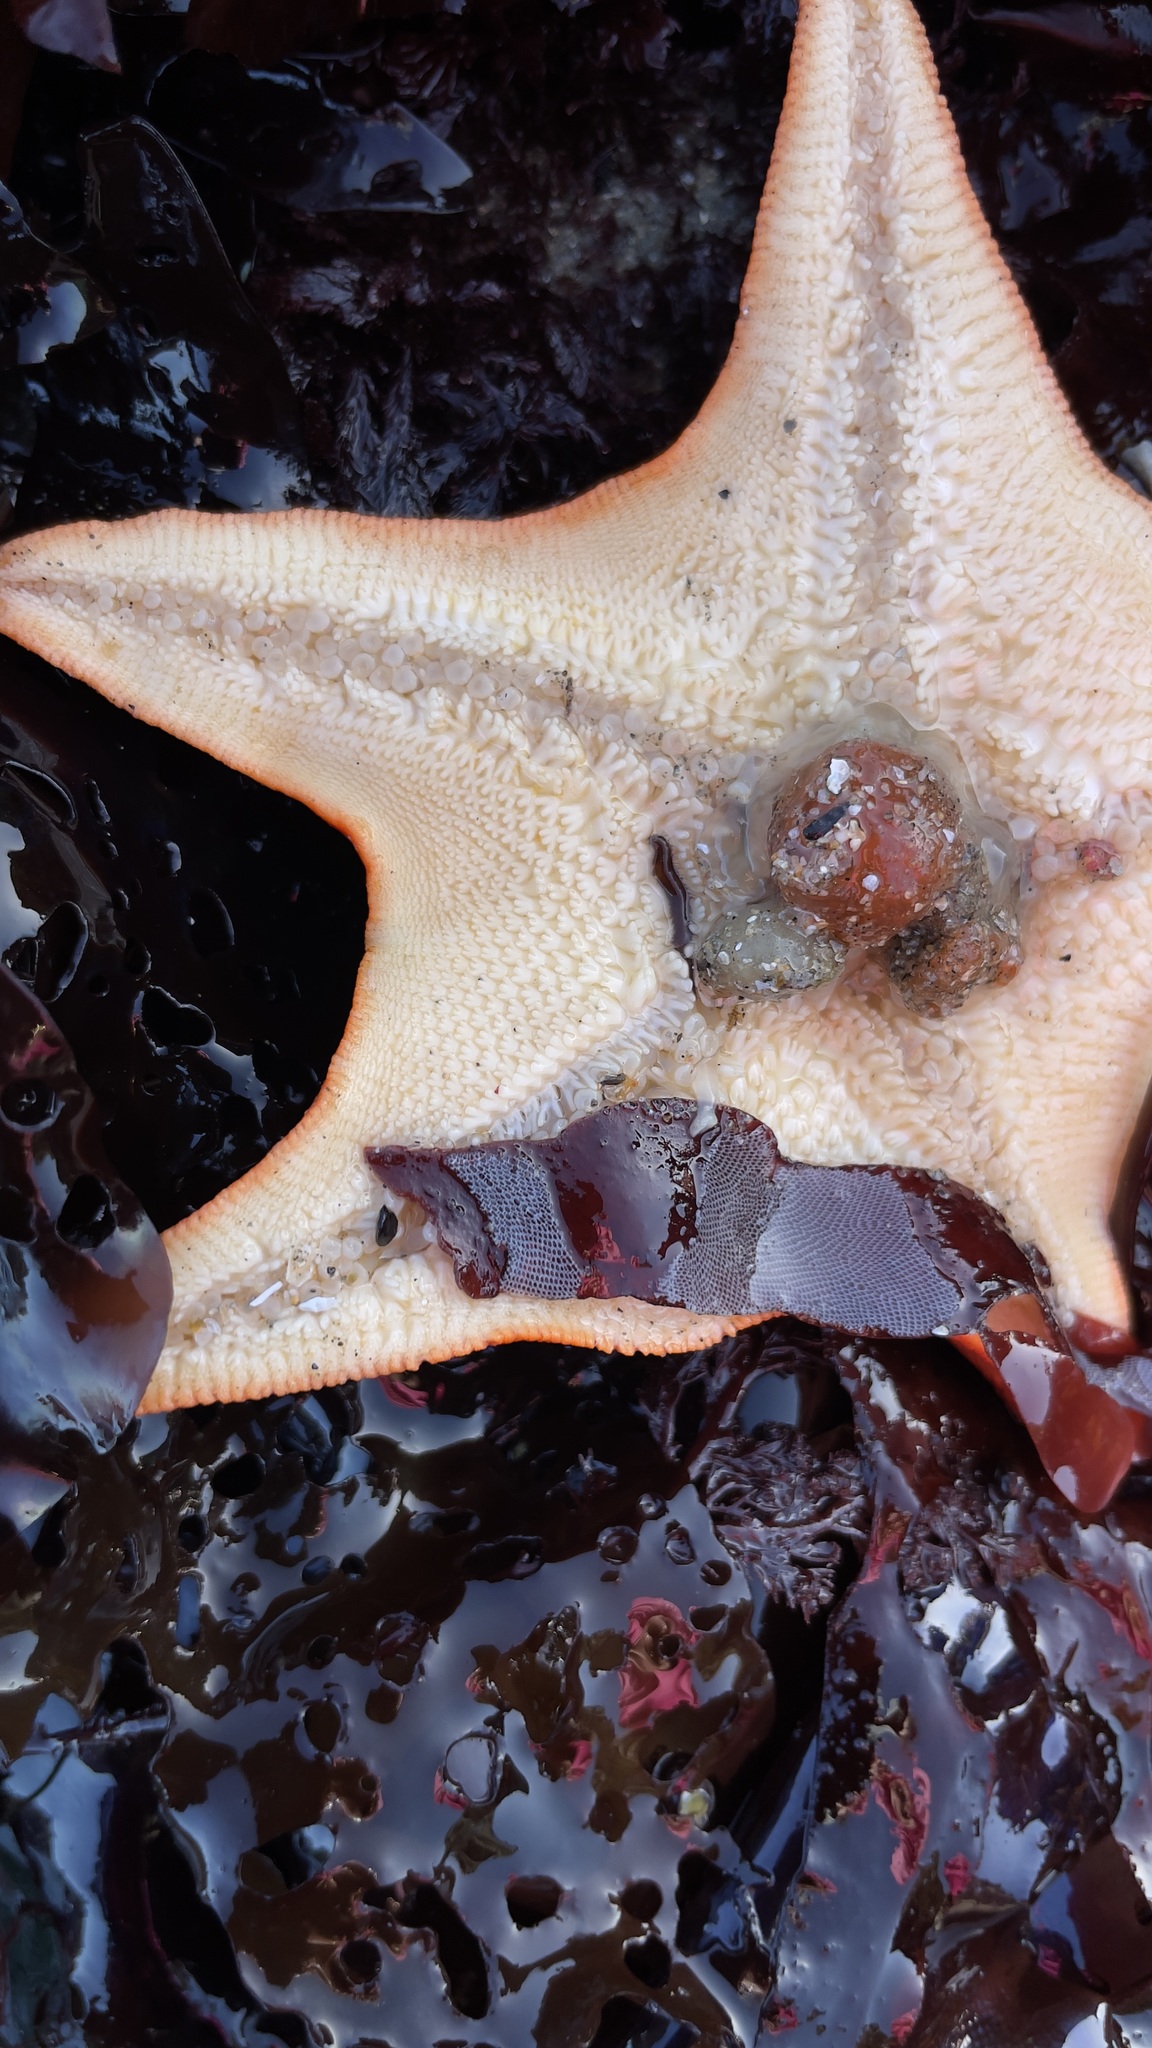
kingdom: Animalia
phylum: Annelida
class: Polychaeta
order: Phyllodocida
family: Hesionidae
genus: Oxydromus
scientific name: Oxydromus pugettensis
